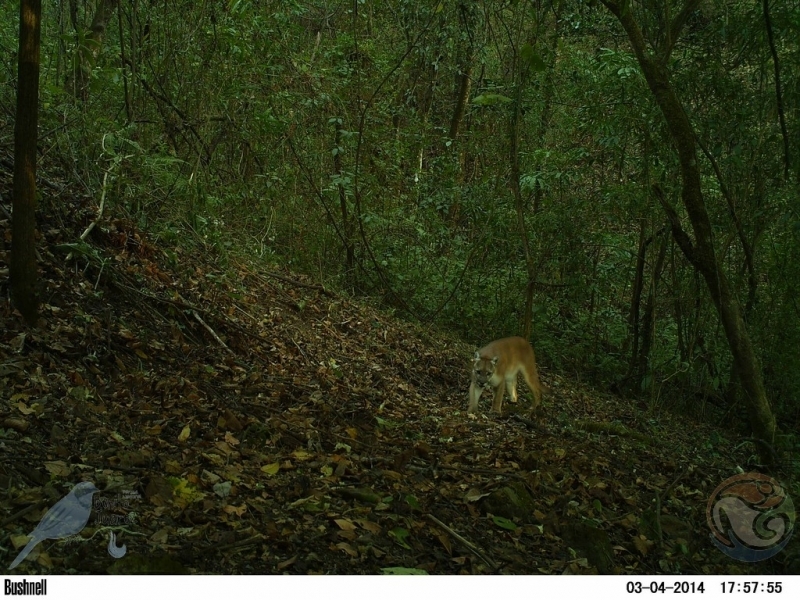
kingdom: Animalia
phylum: Chordata
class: Mammalia
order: Carnivora
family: Felidae
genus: Puma
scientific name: Puma concolor
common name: Puma
